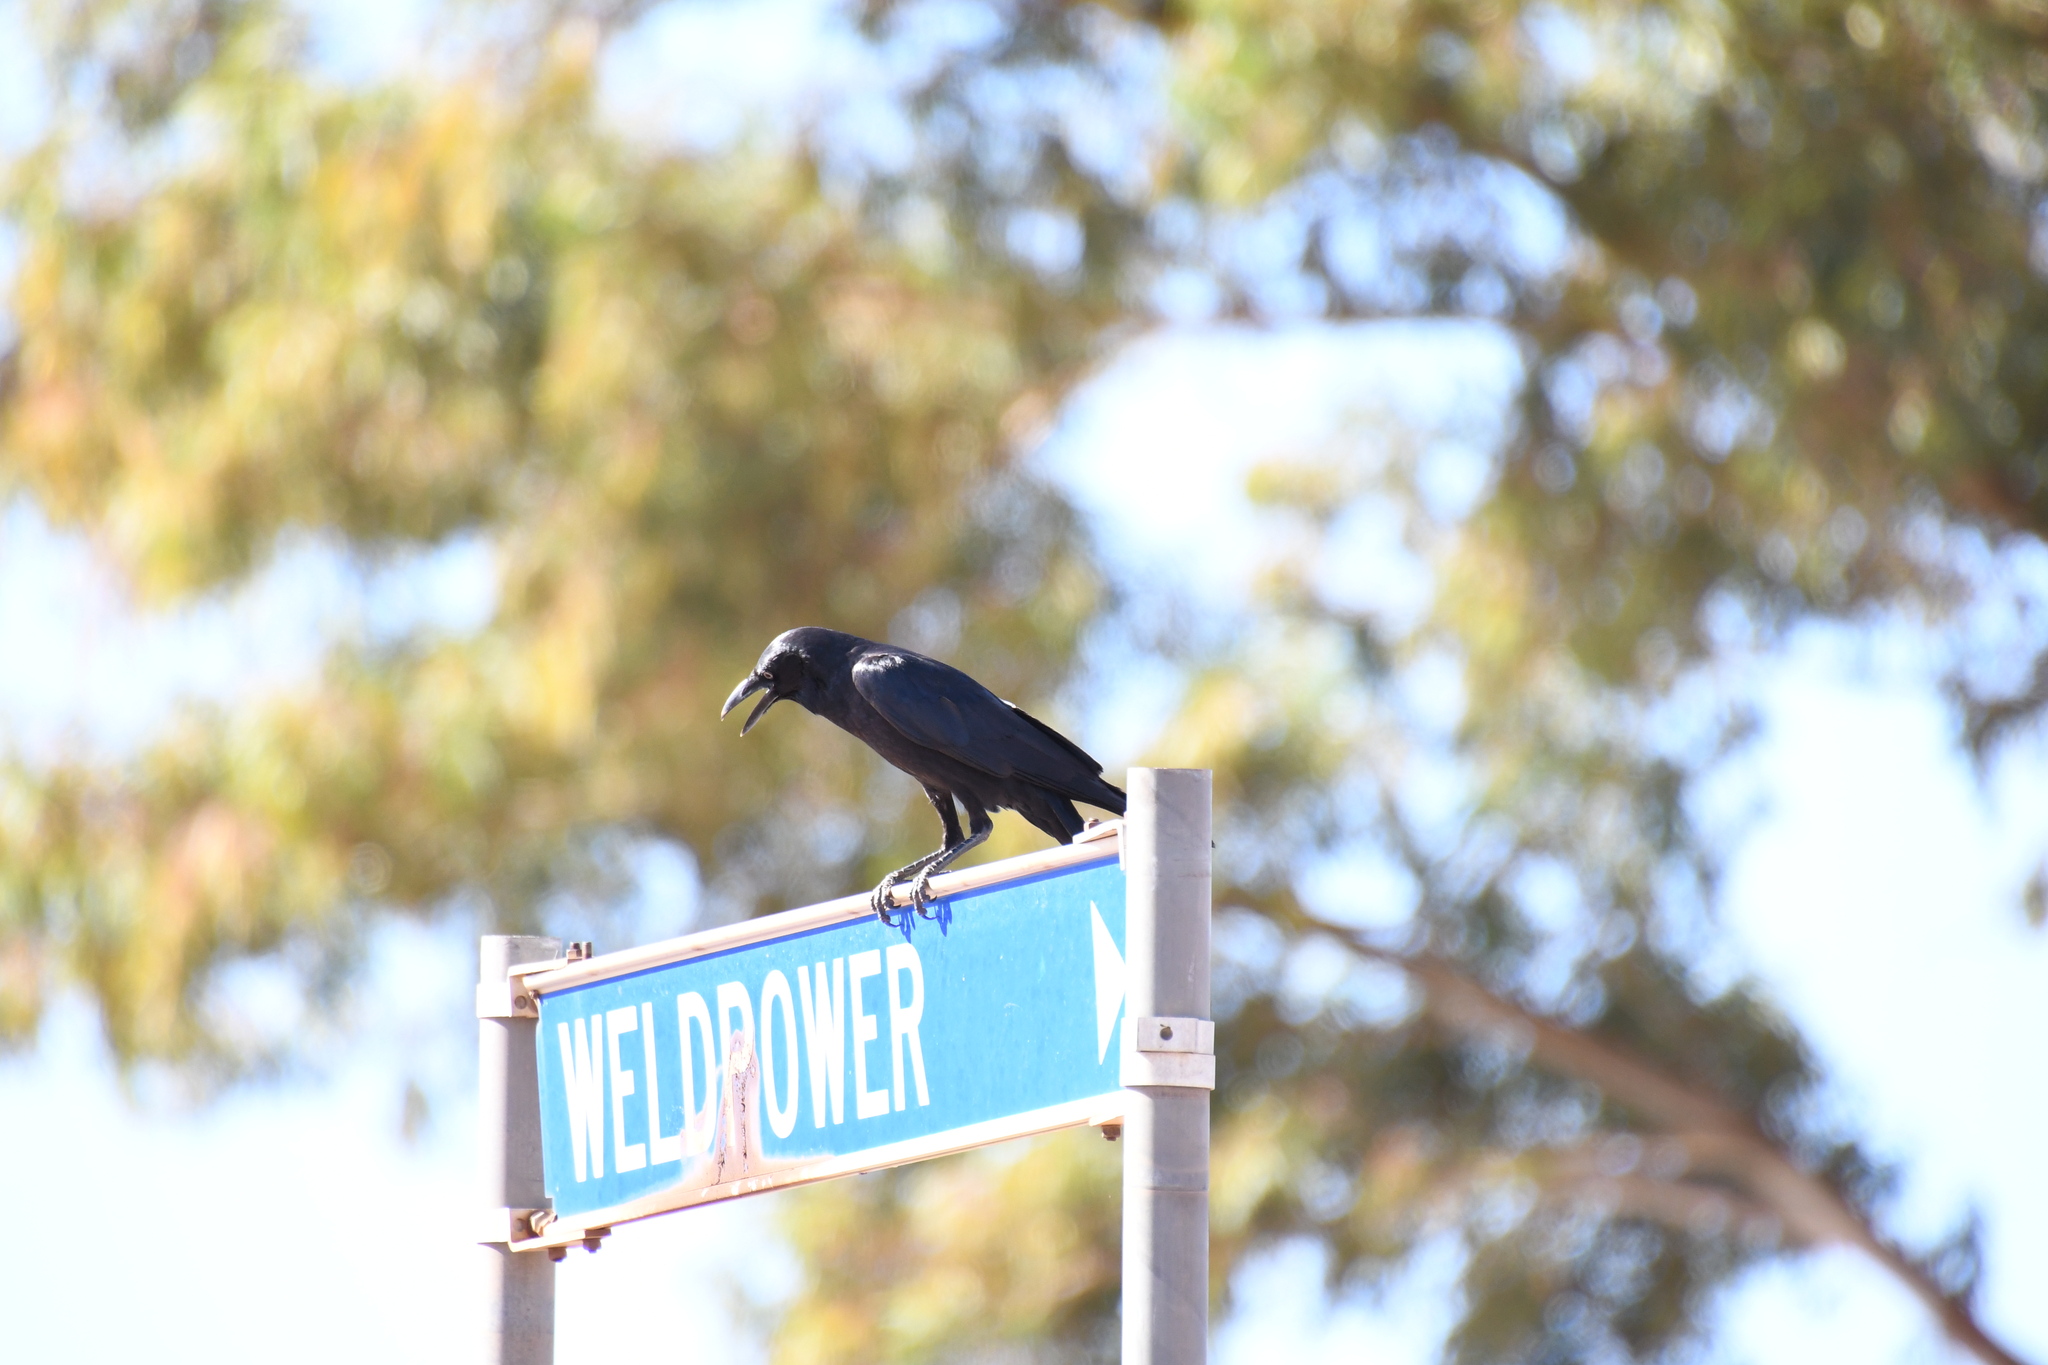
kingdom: Animalia
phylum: Chordata
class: Aves
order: Passeriformes
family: Corvidae
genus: Corvus
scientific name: Corvus bennetti
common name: Little crow
